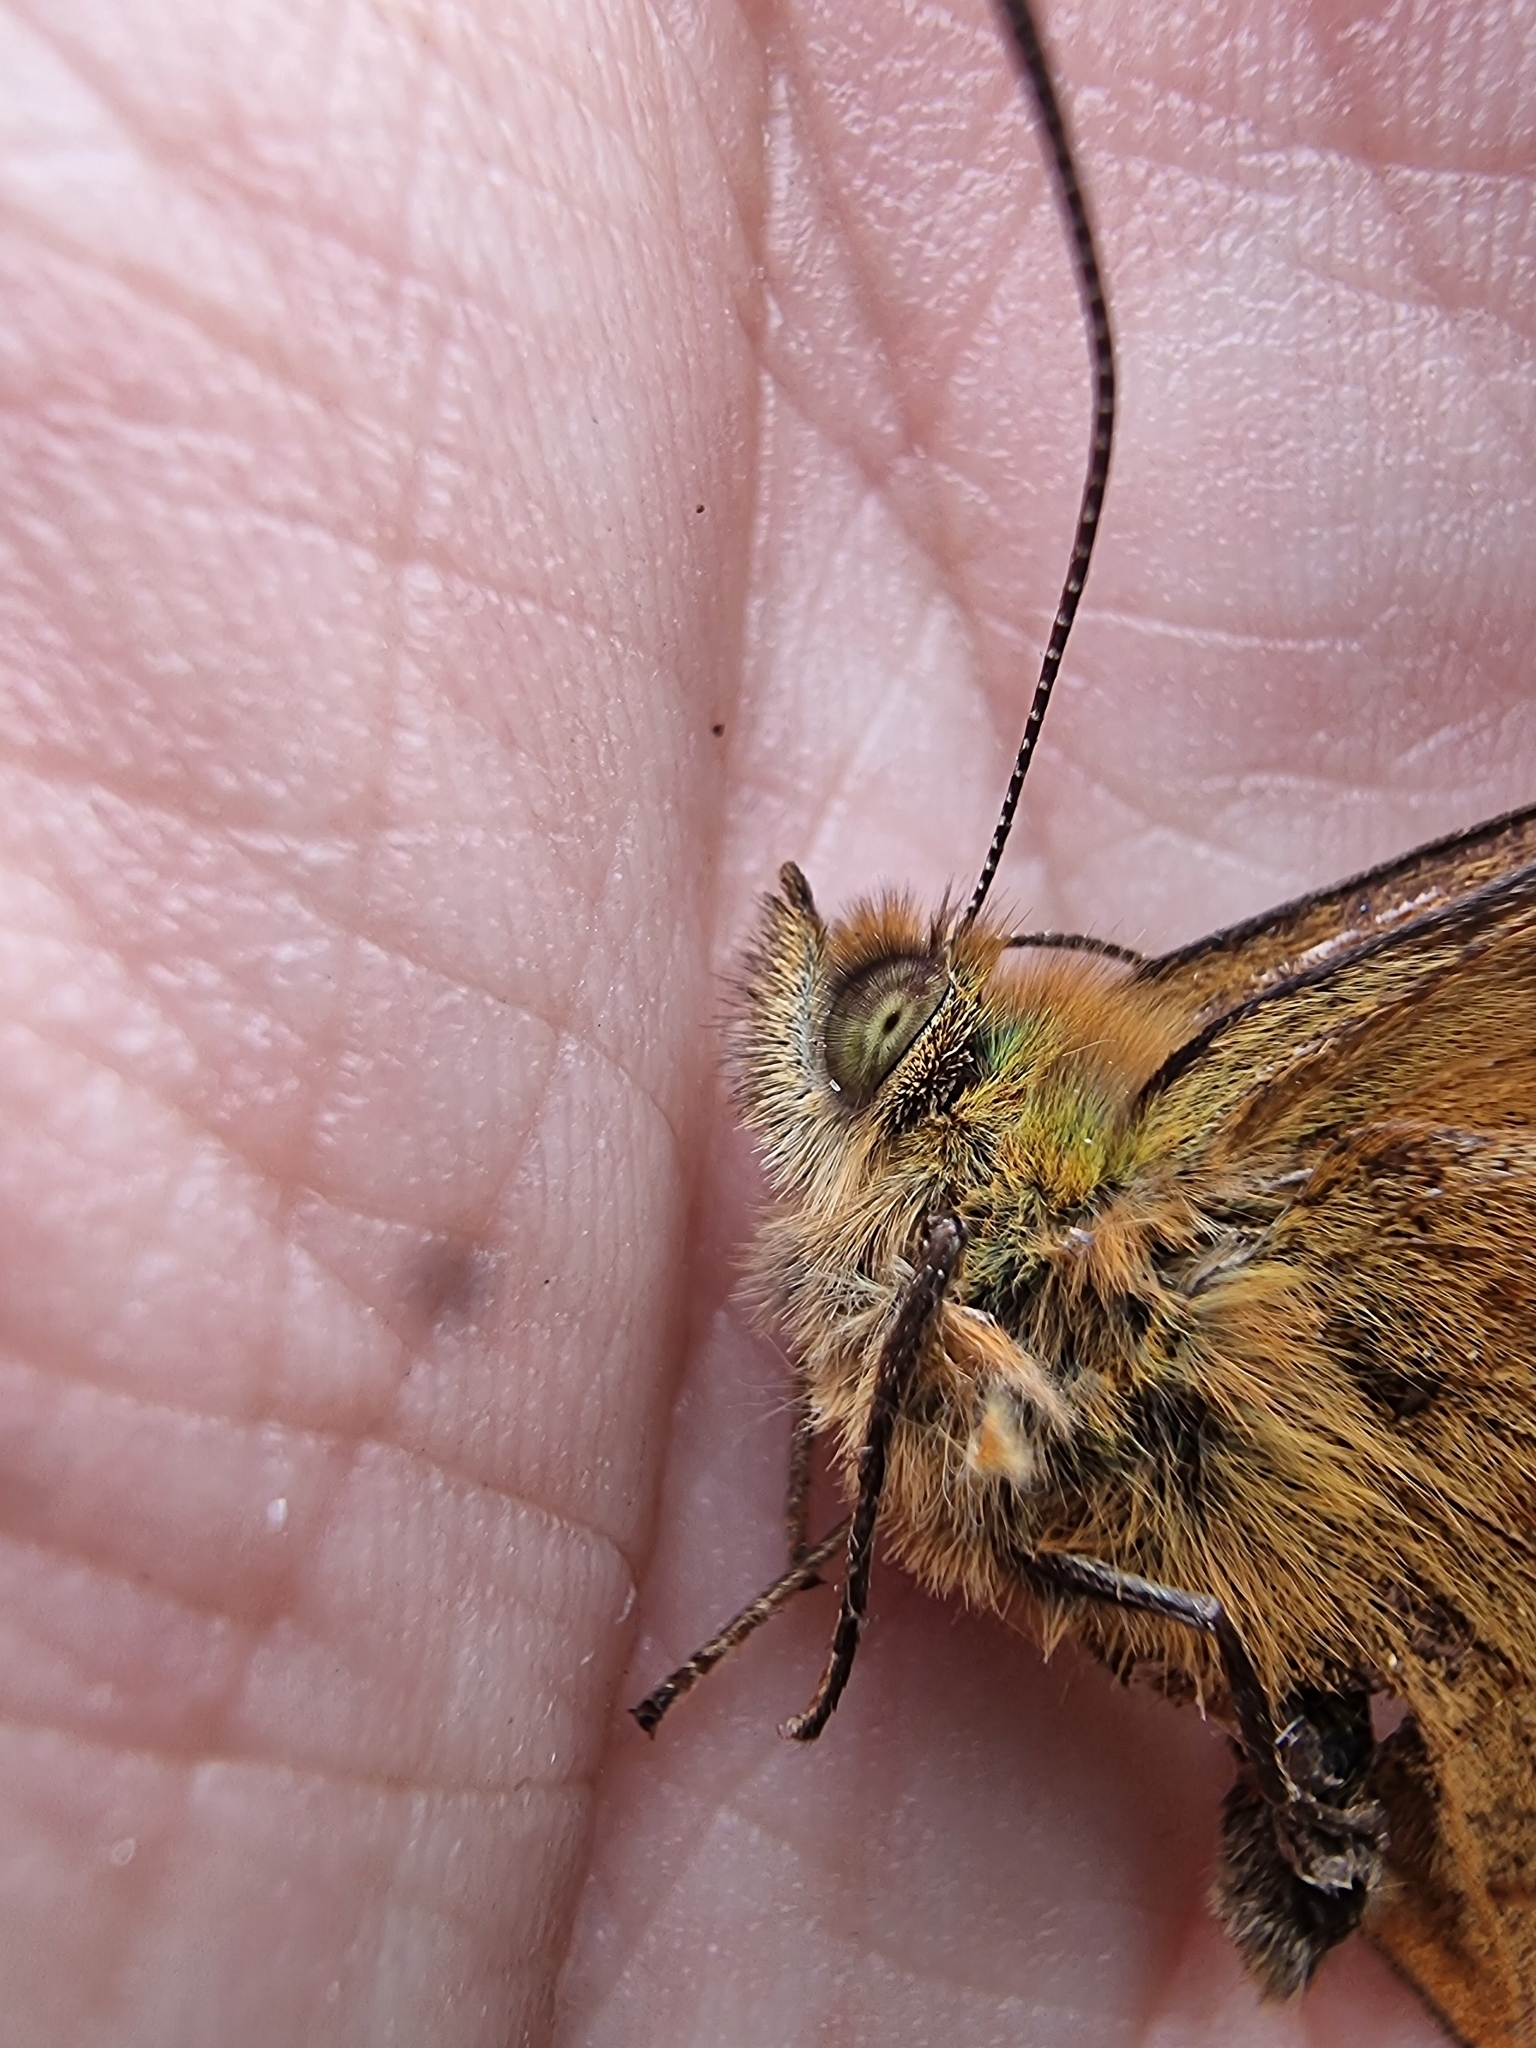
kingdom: Animalia
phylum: Arthropoda
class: Insecta
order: Lepidoptera
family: Nymphalidae
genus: Pararge
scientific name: Pararge
